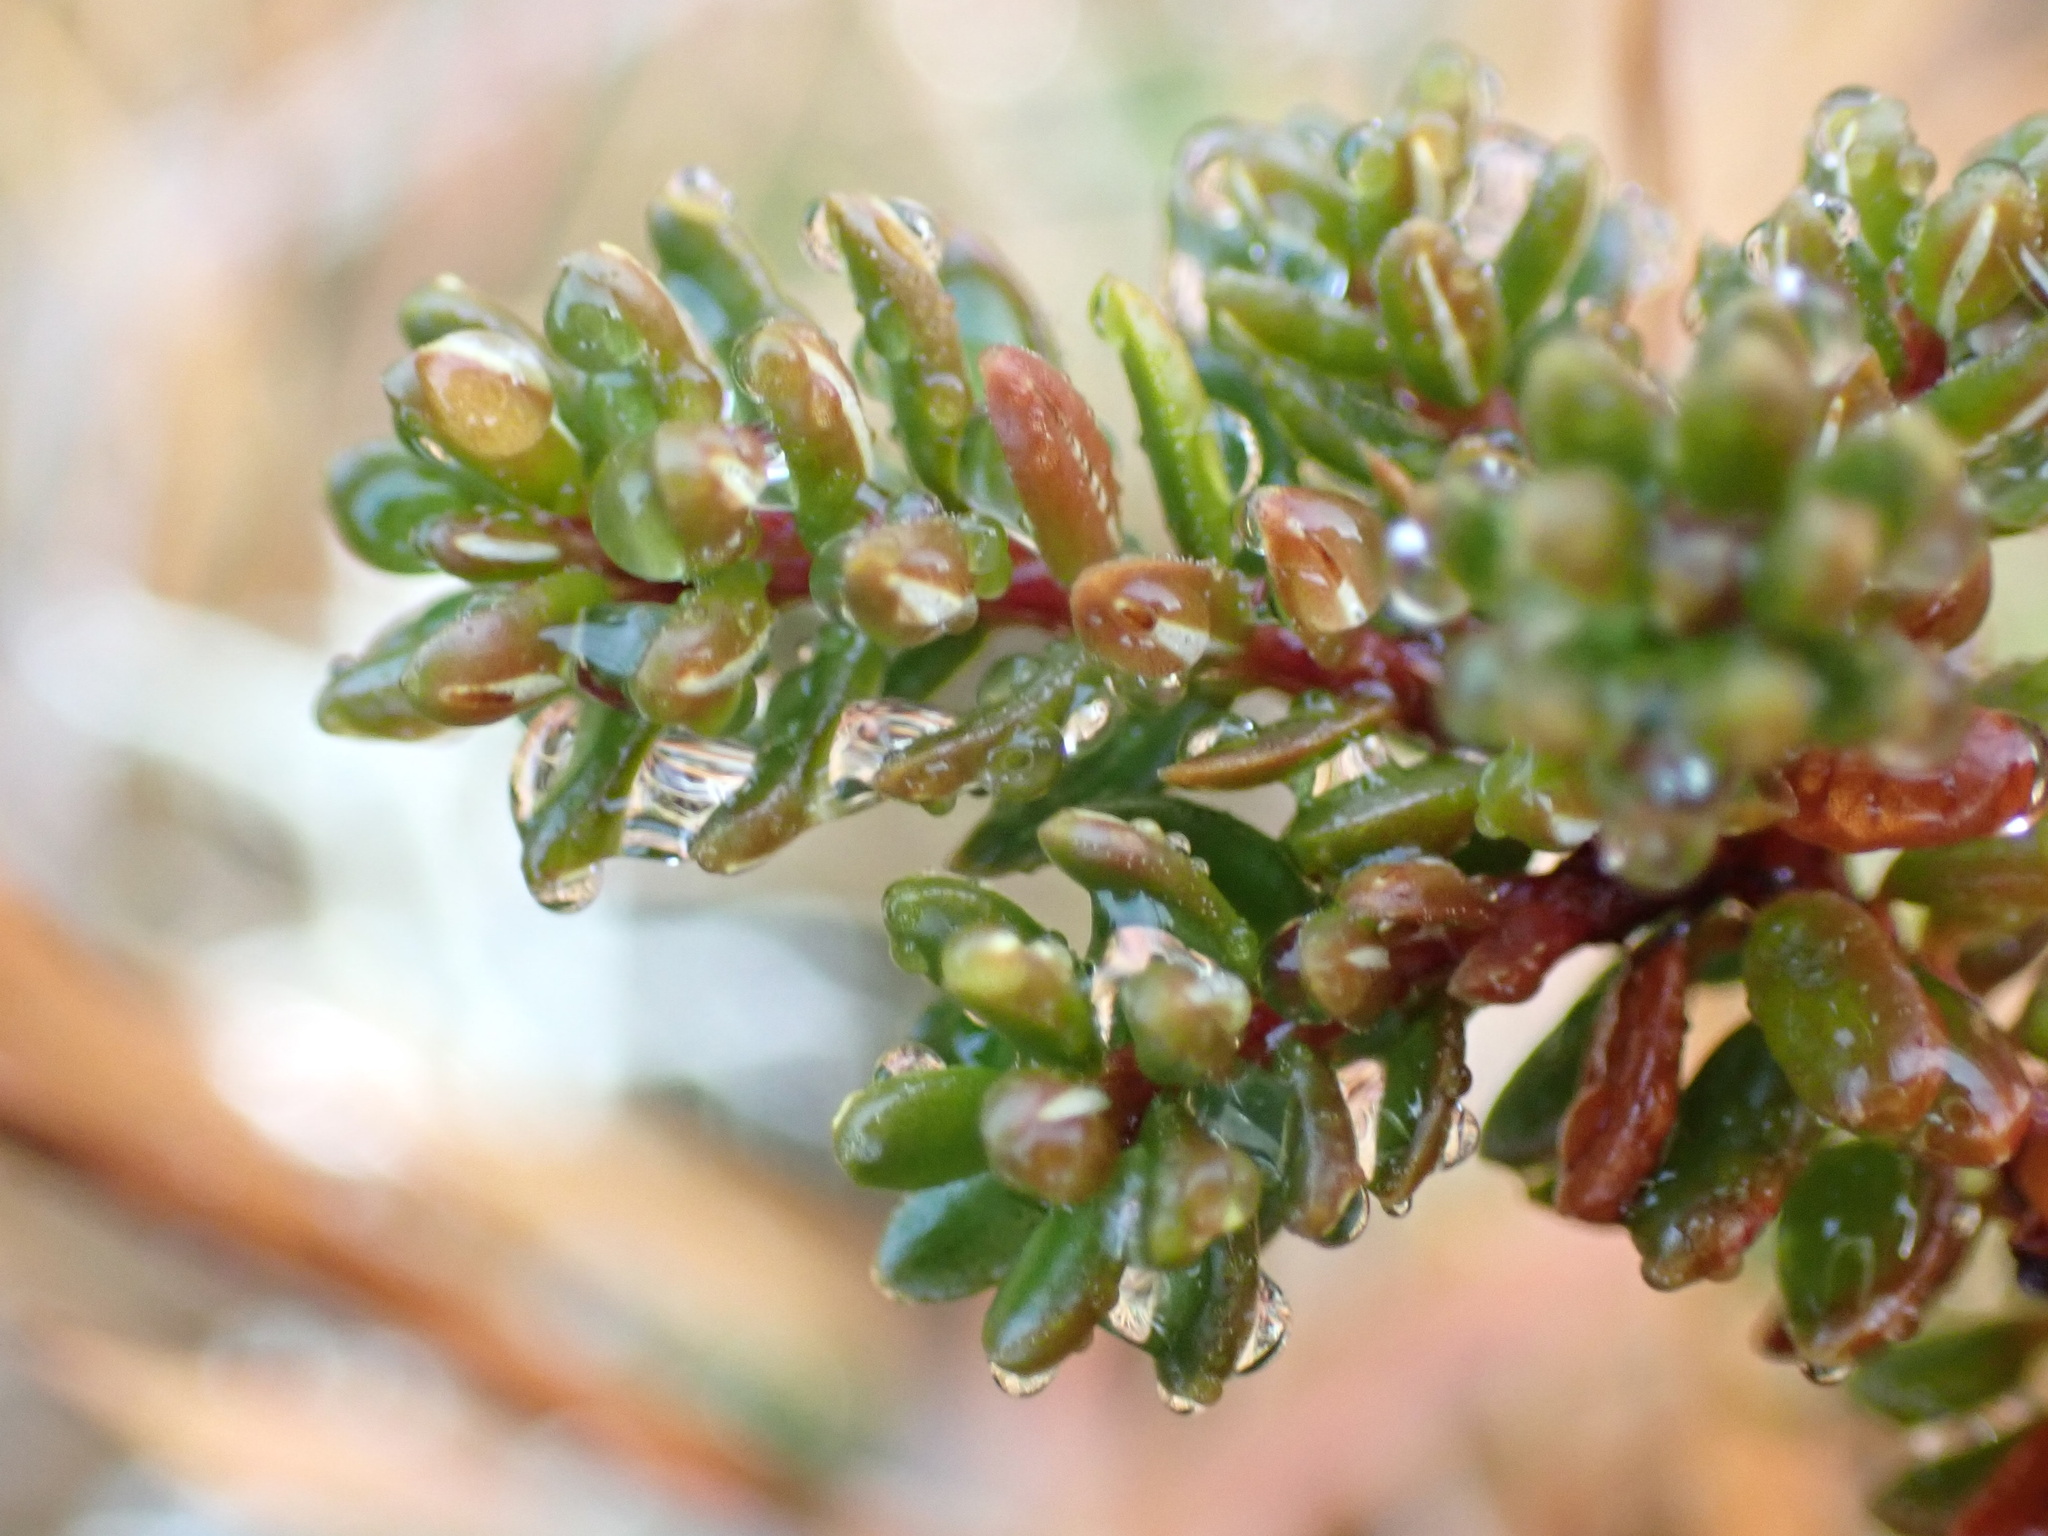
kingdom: Plantae
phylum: Tracheophyta
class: Magnoliopsida
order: Ericales
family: Ericaceae
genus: Empetrum
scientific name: Empetrum nigrum
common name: Black crowberry
